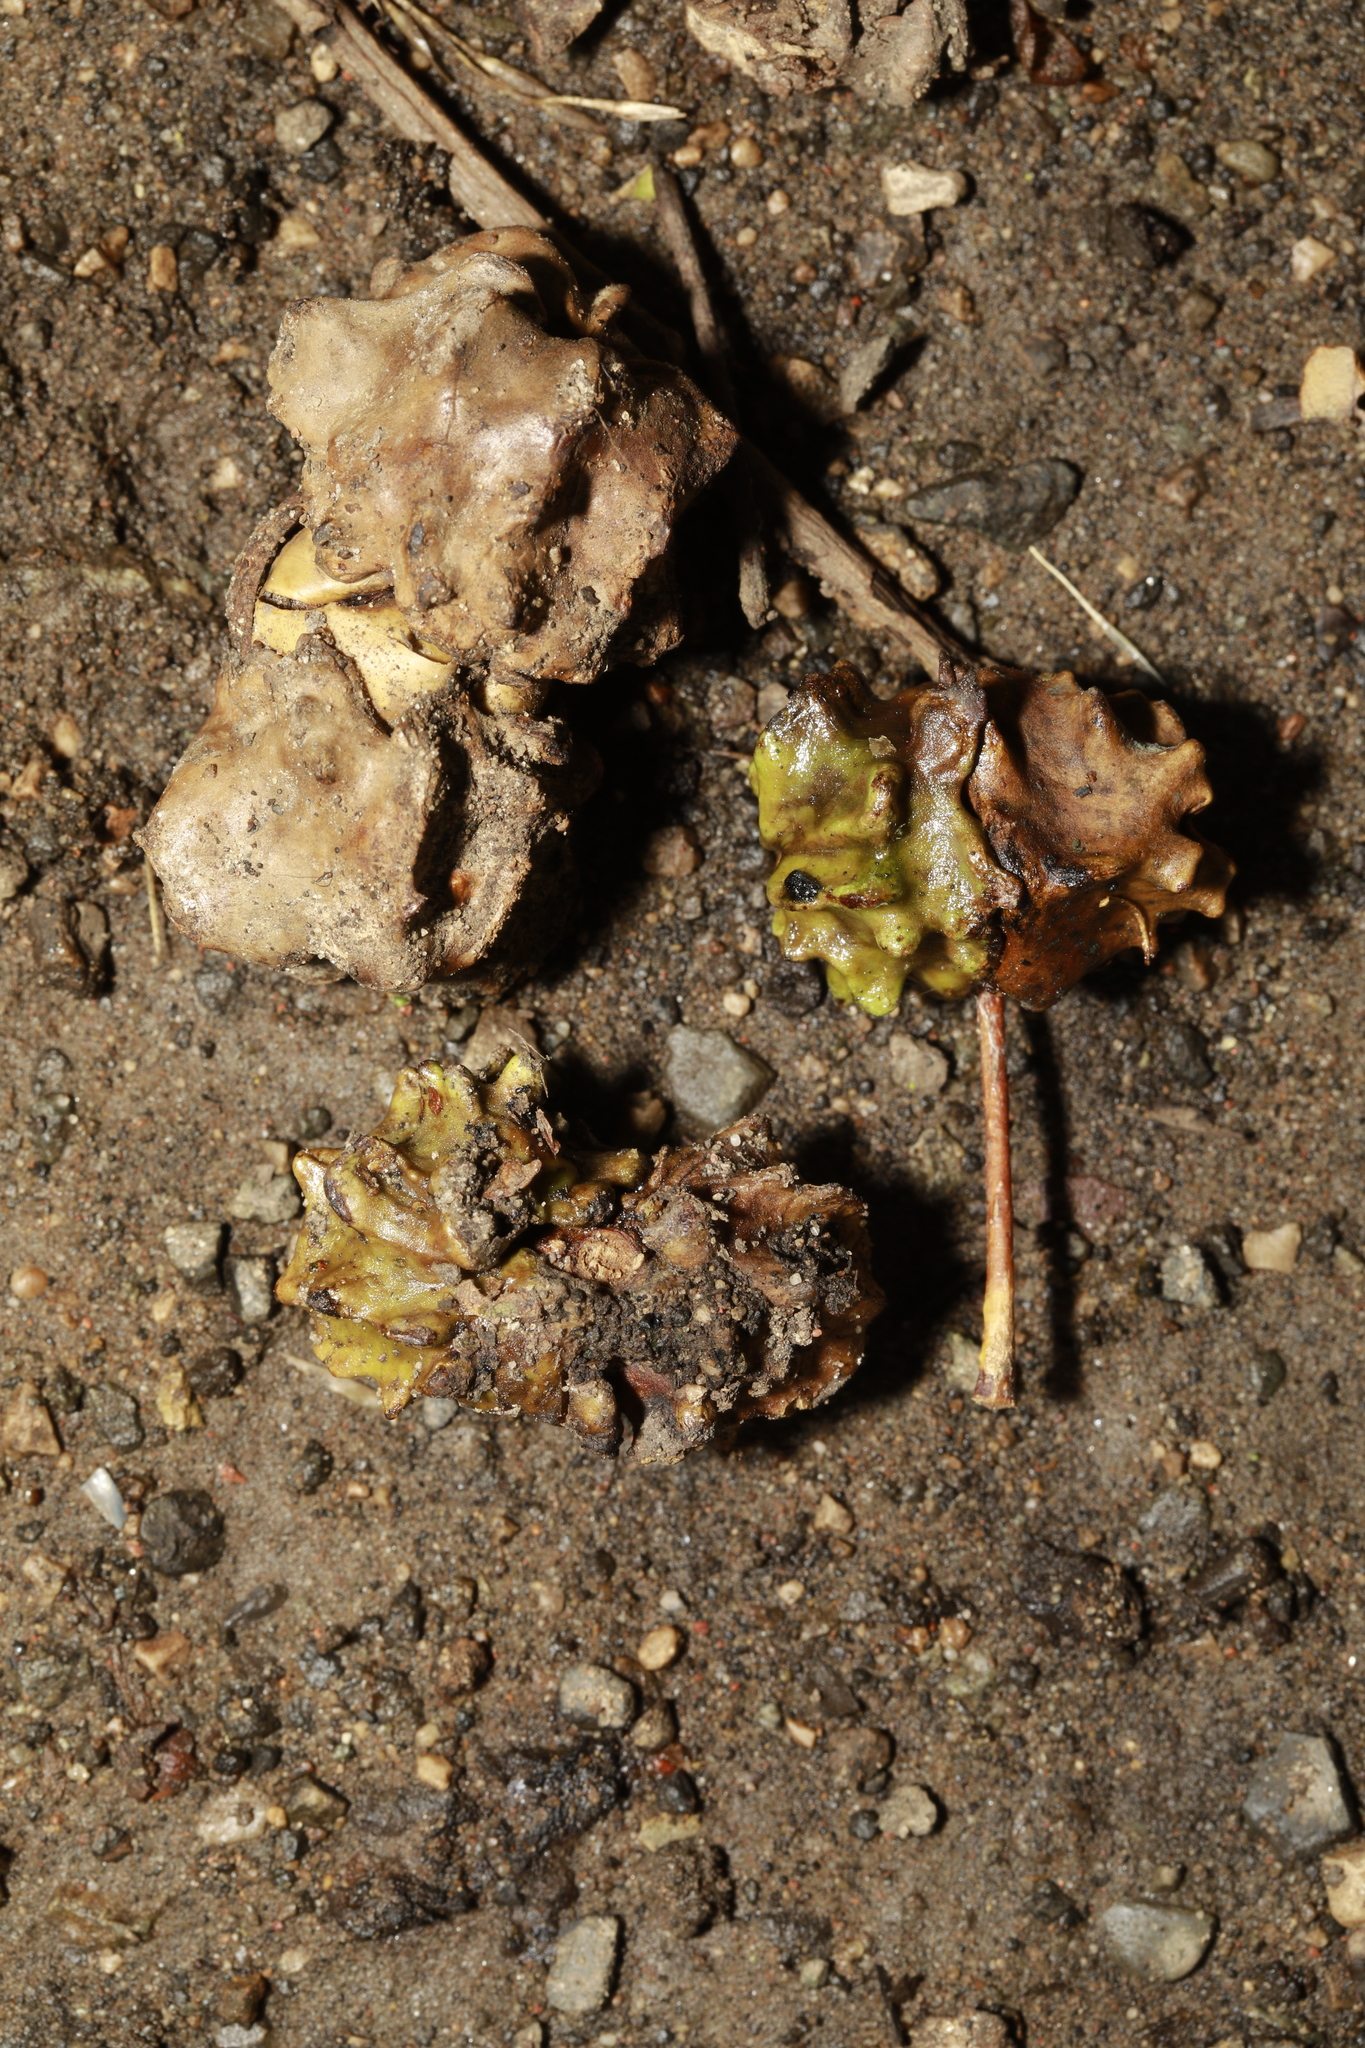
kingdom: Animalia
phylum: Arthropoda
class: Insecta
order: Hymenoptera
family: Cynipidae
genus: Andricus
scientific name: Andricus quercuscalicis
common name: Knopper gall
